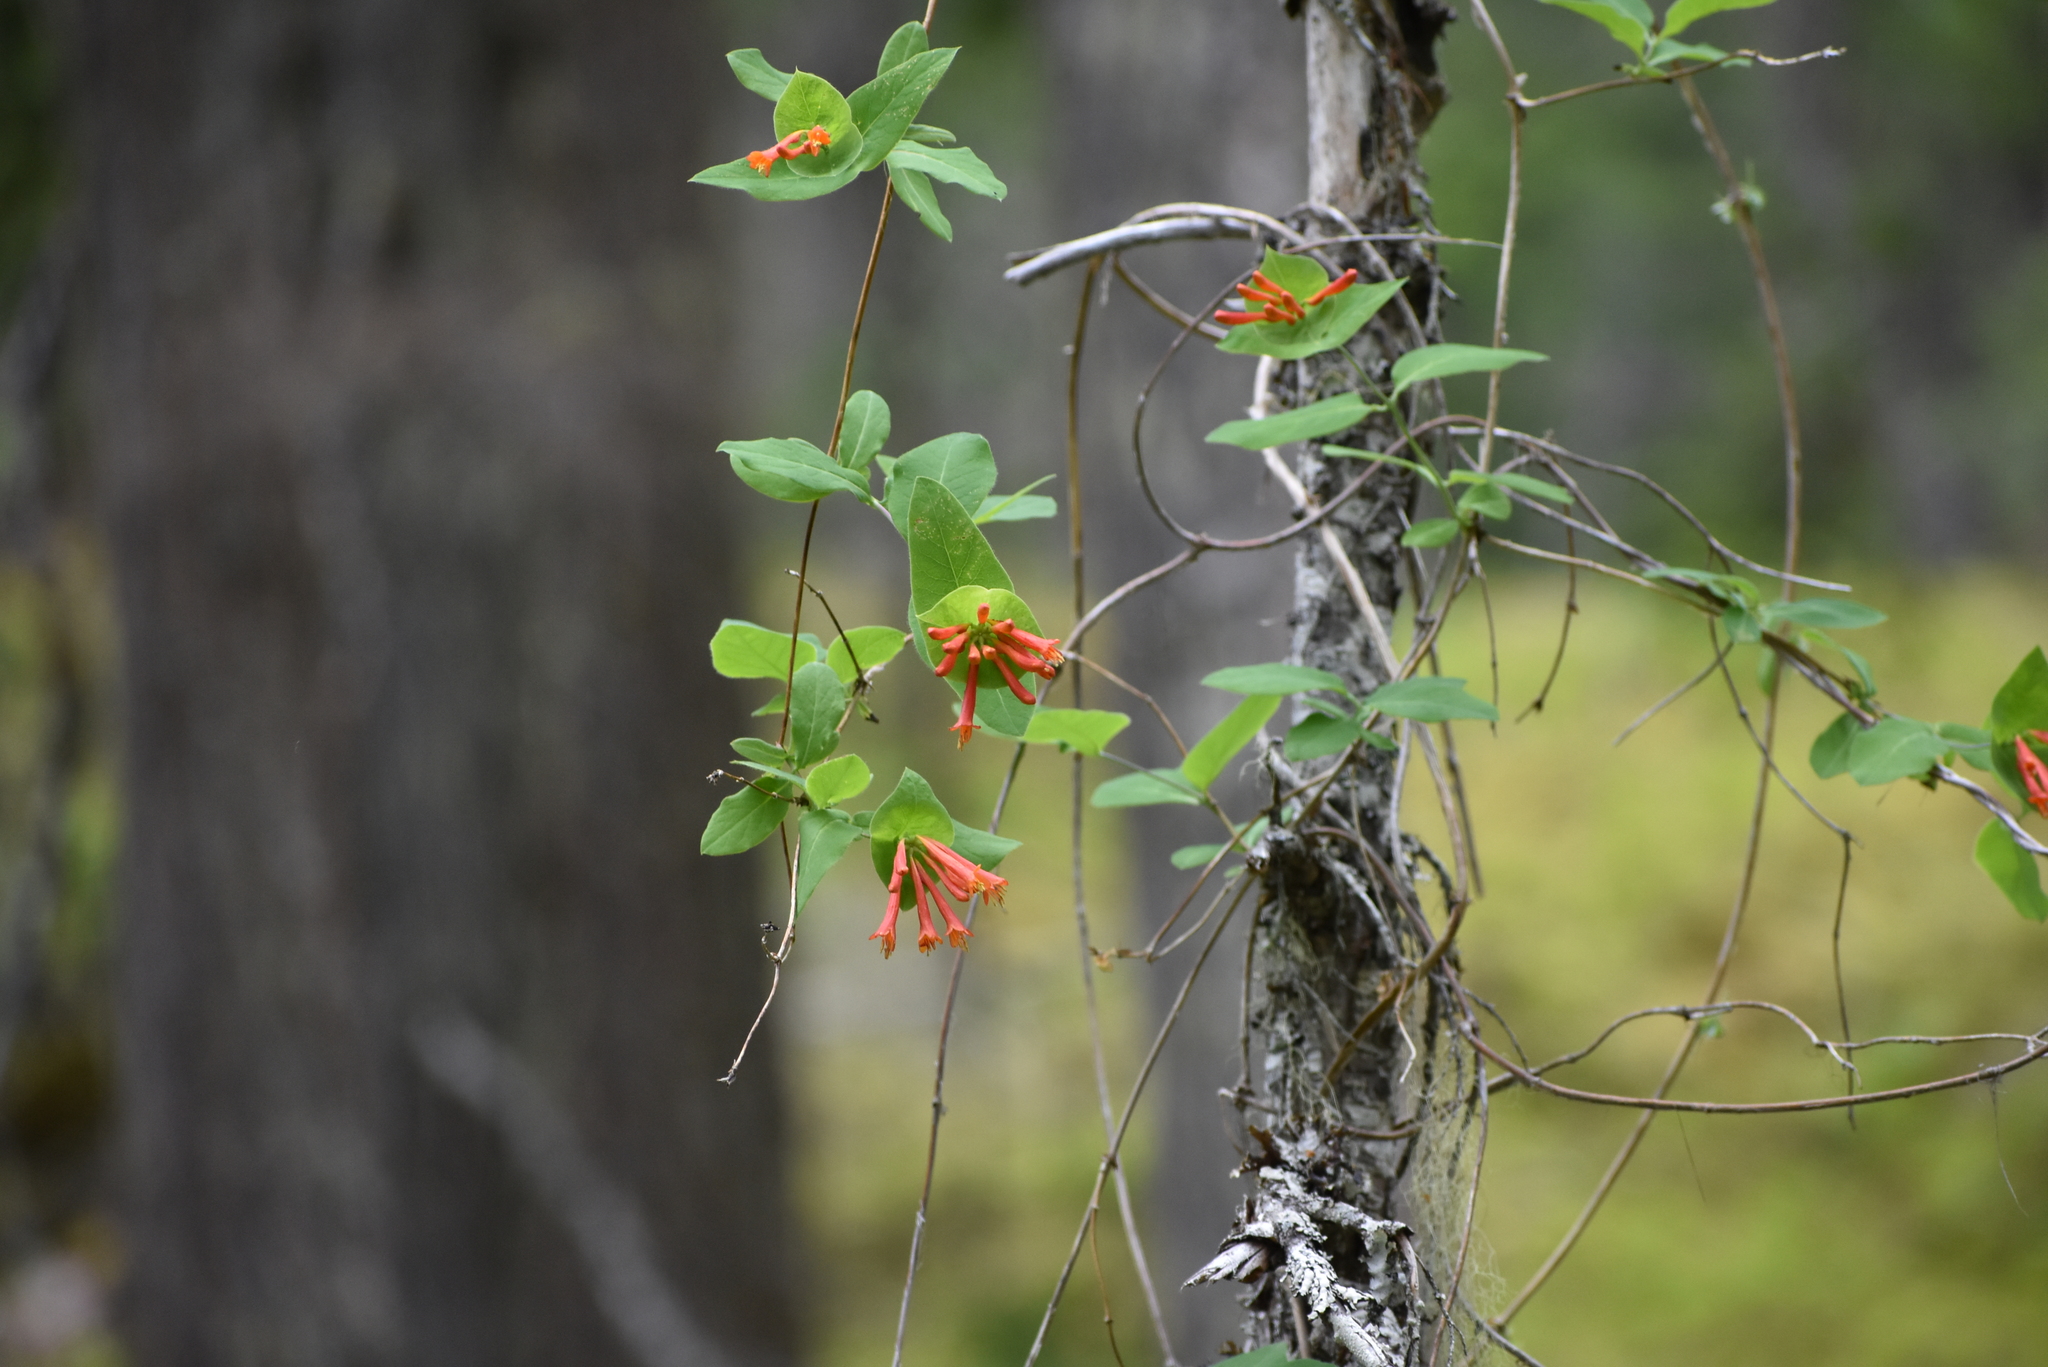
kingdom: Plantae
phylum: Tracheophyta
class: Magnoliopsida
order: Dipsacales
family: Caprifoliaceae
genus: Lonicera
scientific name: Lonicera ciliosa
